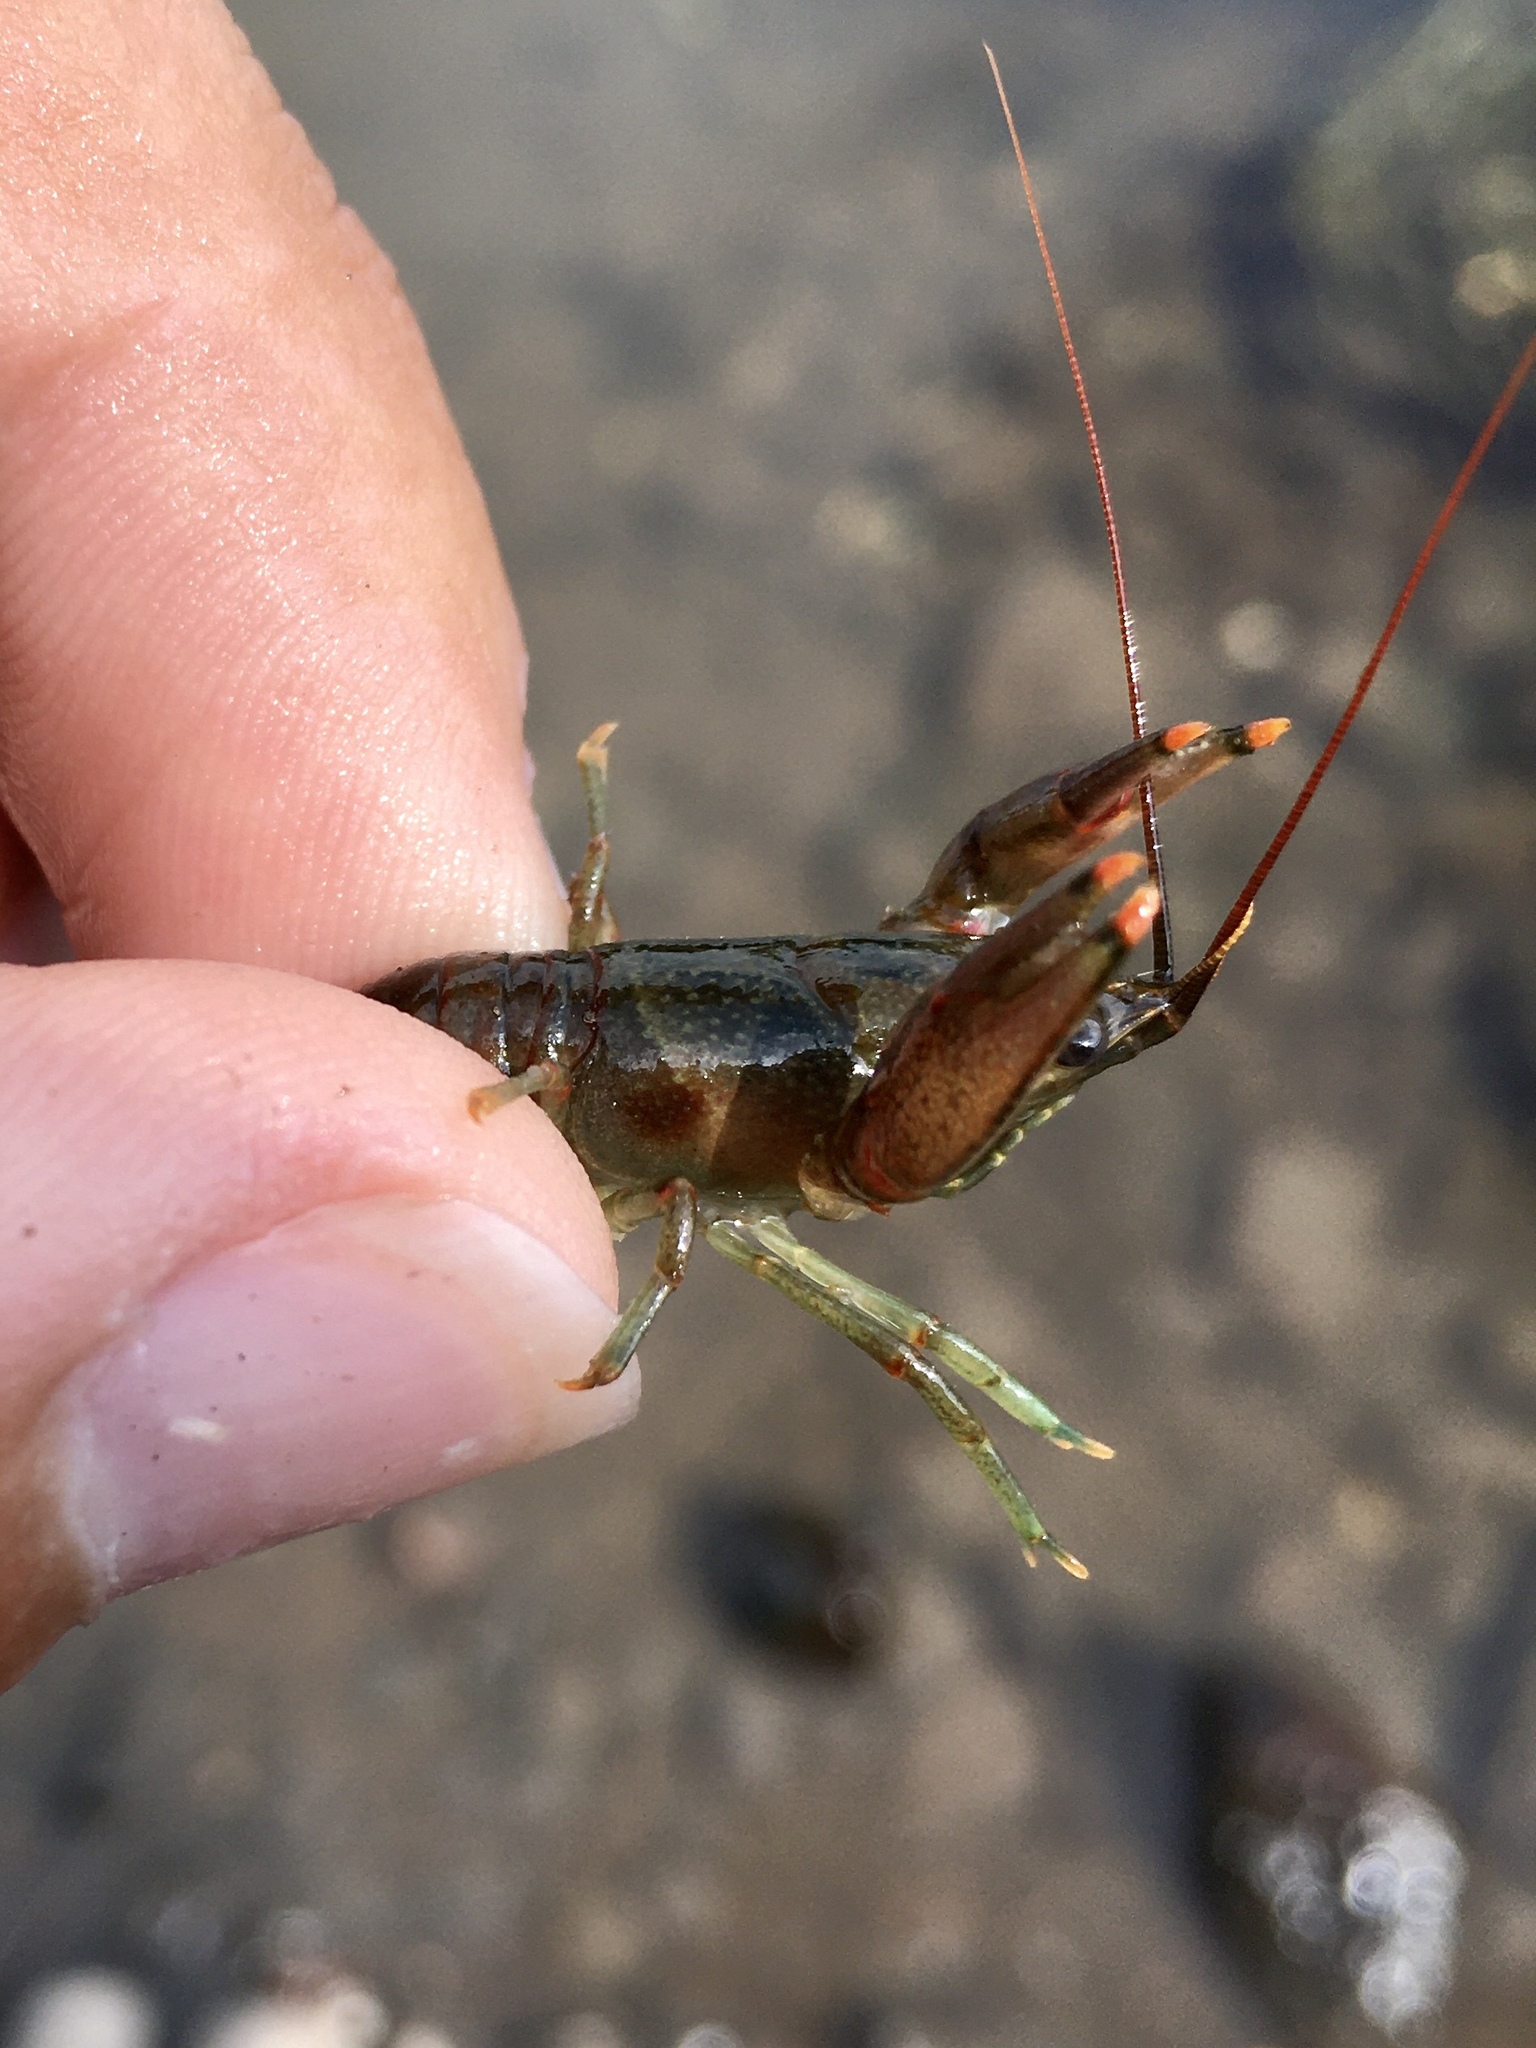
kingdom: Animalia
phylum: Arthropoda
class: Malacostraca
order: Decapoda
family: Cambaridae
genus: Faxonius
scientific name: Faxonius rusticus
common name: Rusty crayfish
